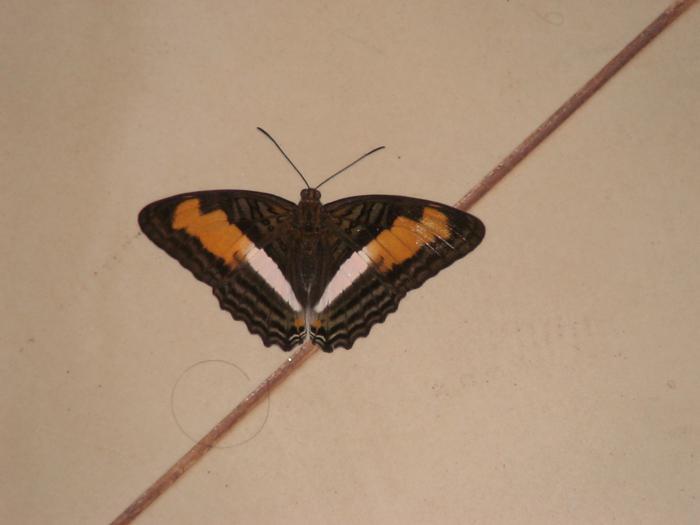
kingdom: Animalia
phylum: Arthropoda
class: Insecta
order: Lepidoptera
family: Nymphalidae
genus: Limenitis
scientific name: Limenitis phliassa
